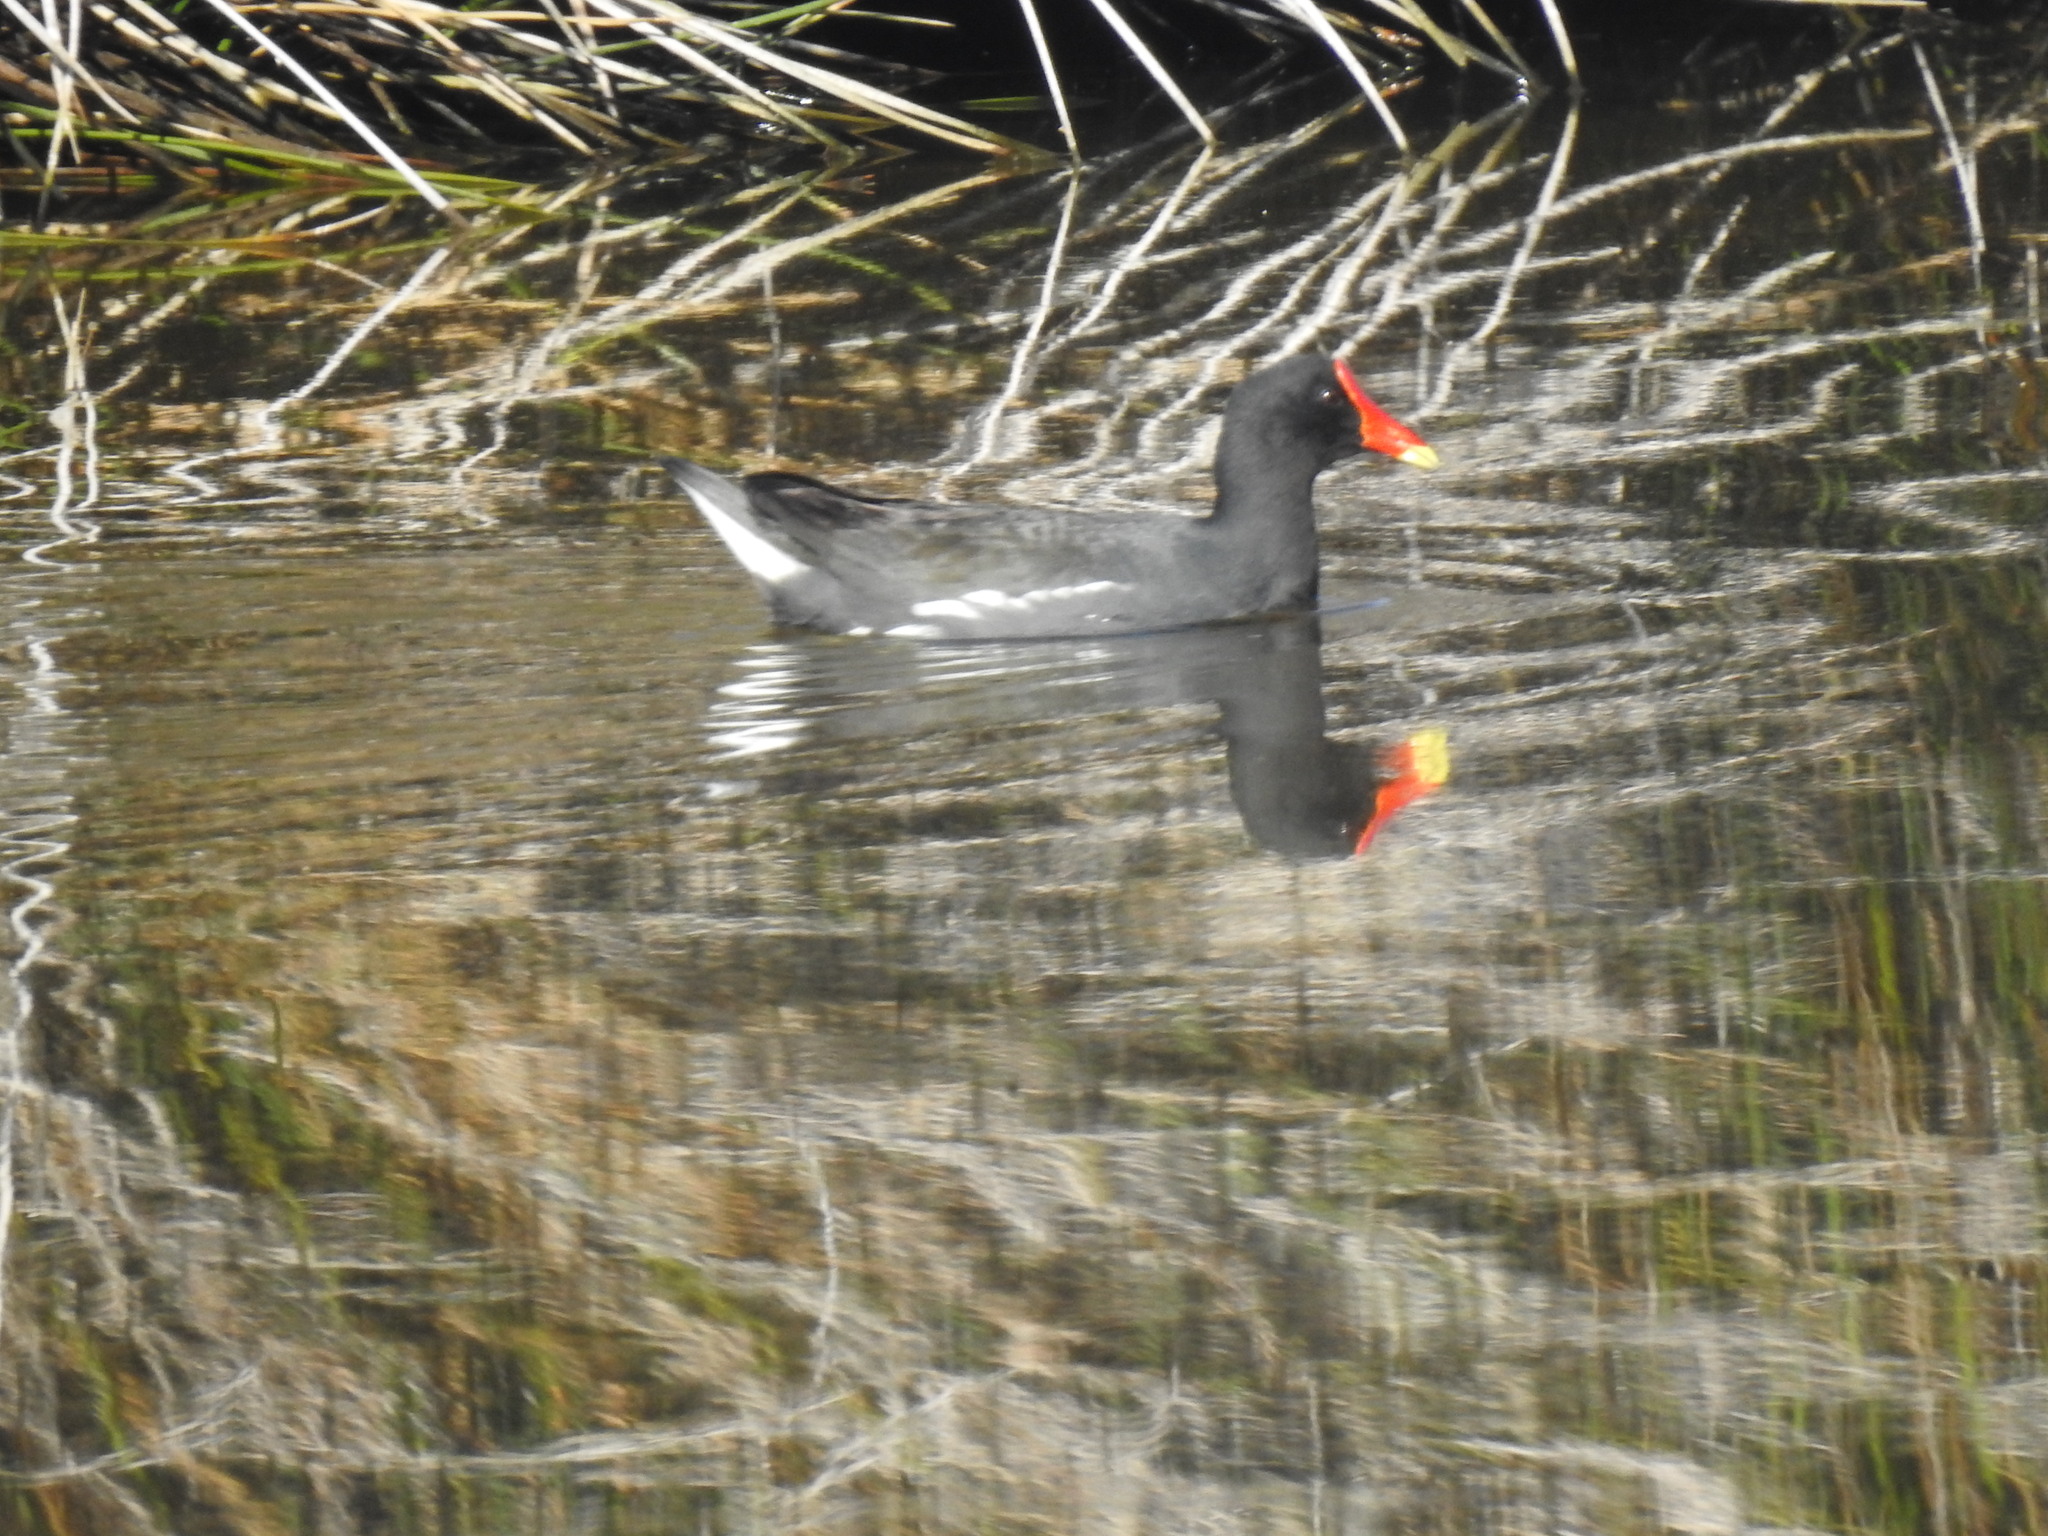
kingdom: Animalia
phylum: Chordata
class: Aves
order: Gruiformes
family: Rallidae
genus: Gallinula
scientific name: Gallinula chloropus
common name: Common moorhen
